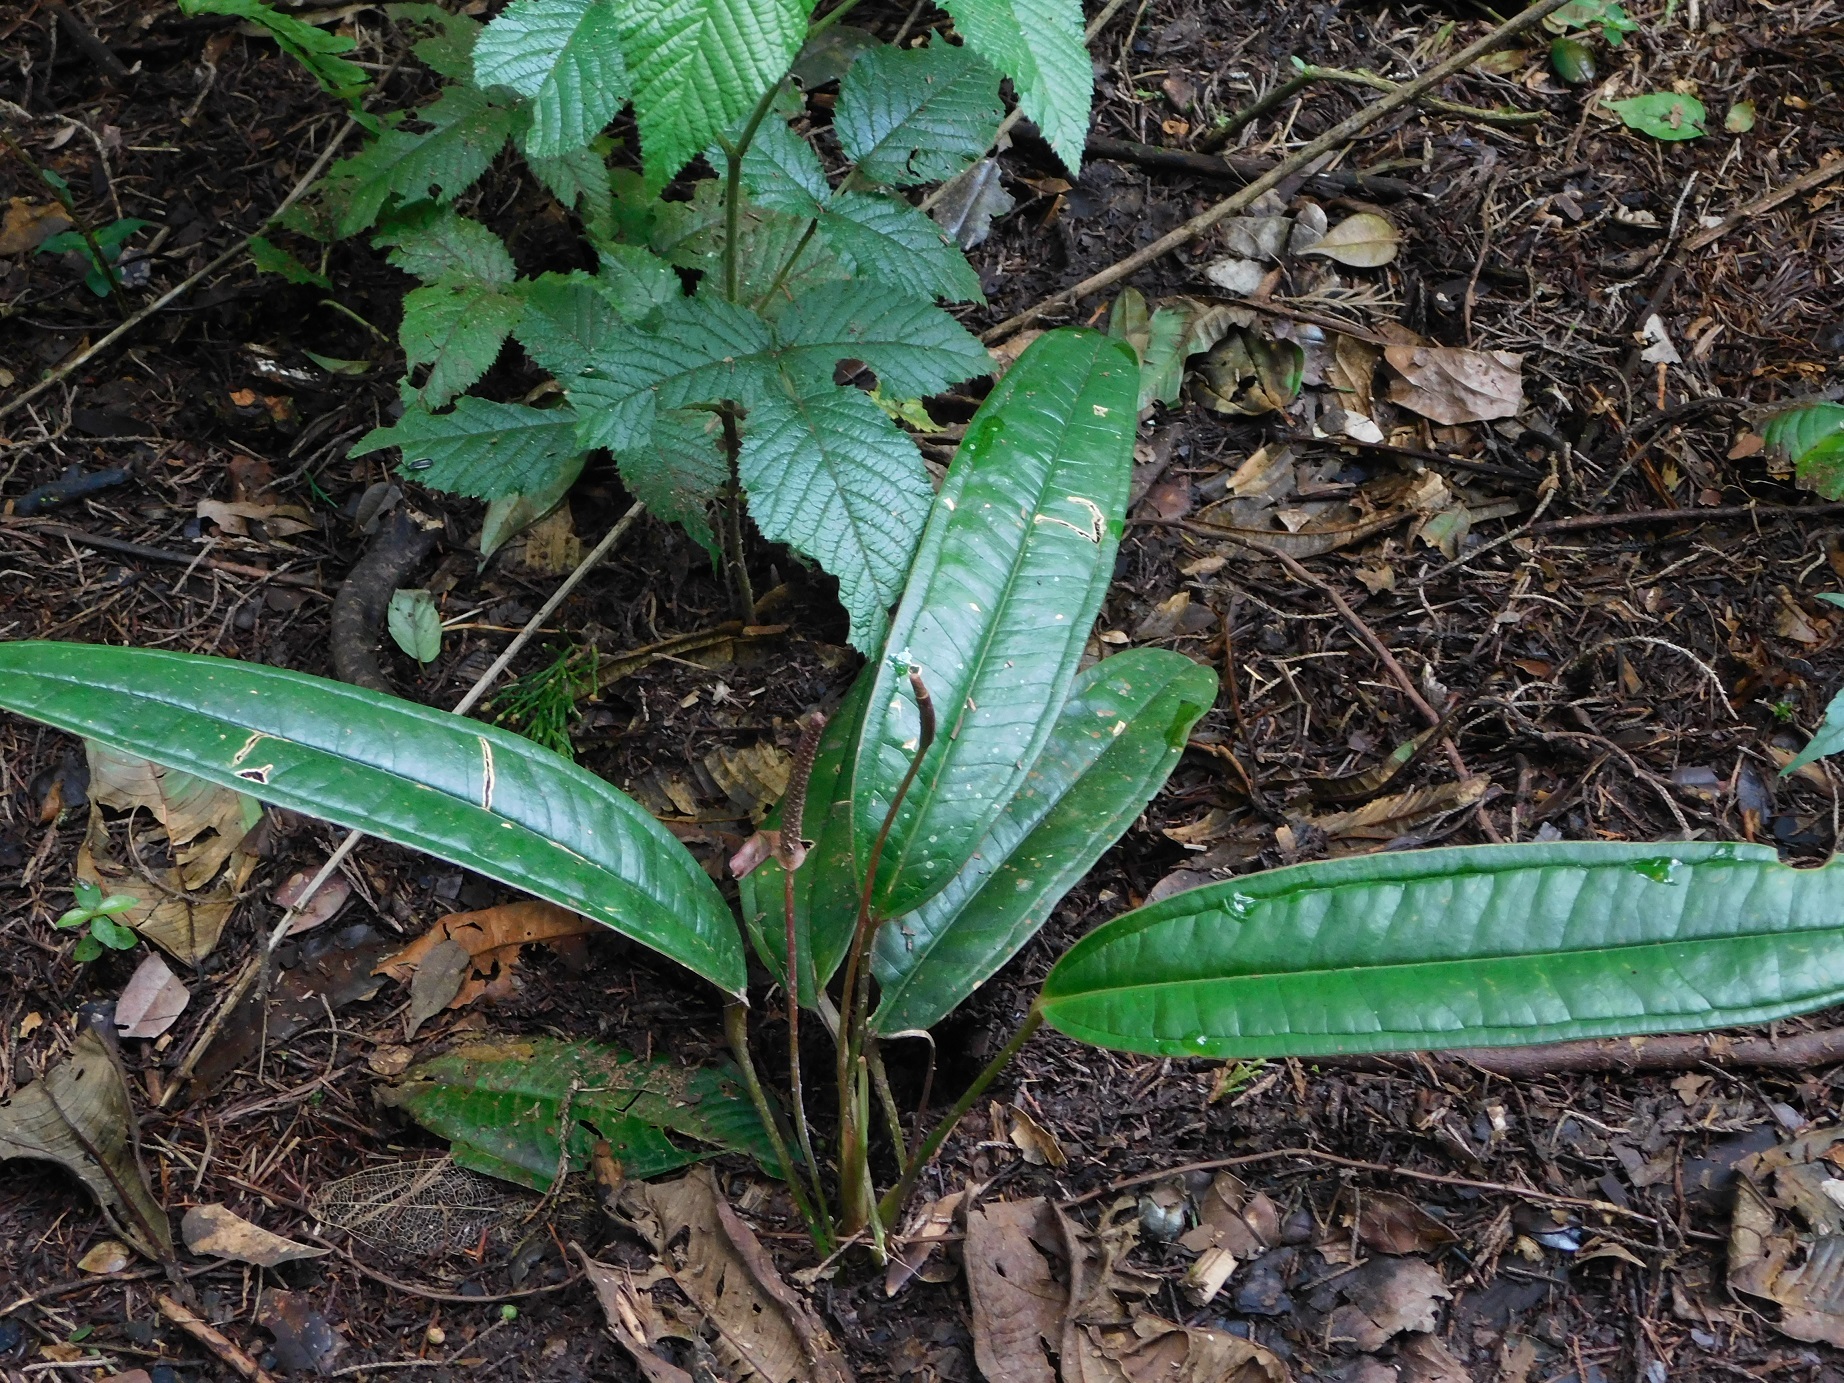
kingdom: Plantae
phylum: Tracheophyta
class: Liliopsida
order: Alismatales
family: Araceae
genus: Anthurium
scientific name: Anthurium caucanum
